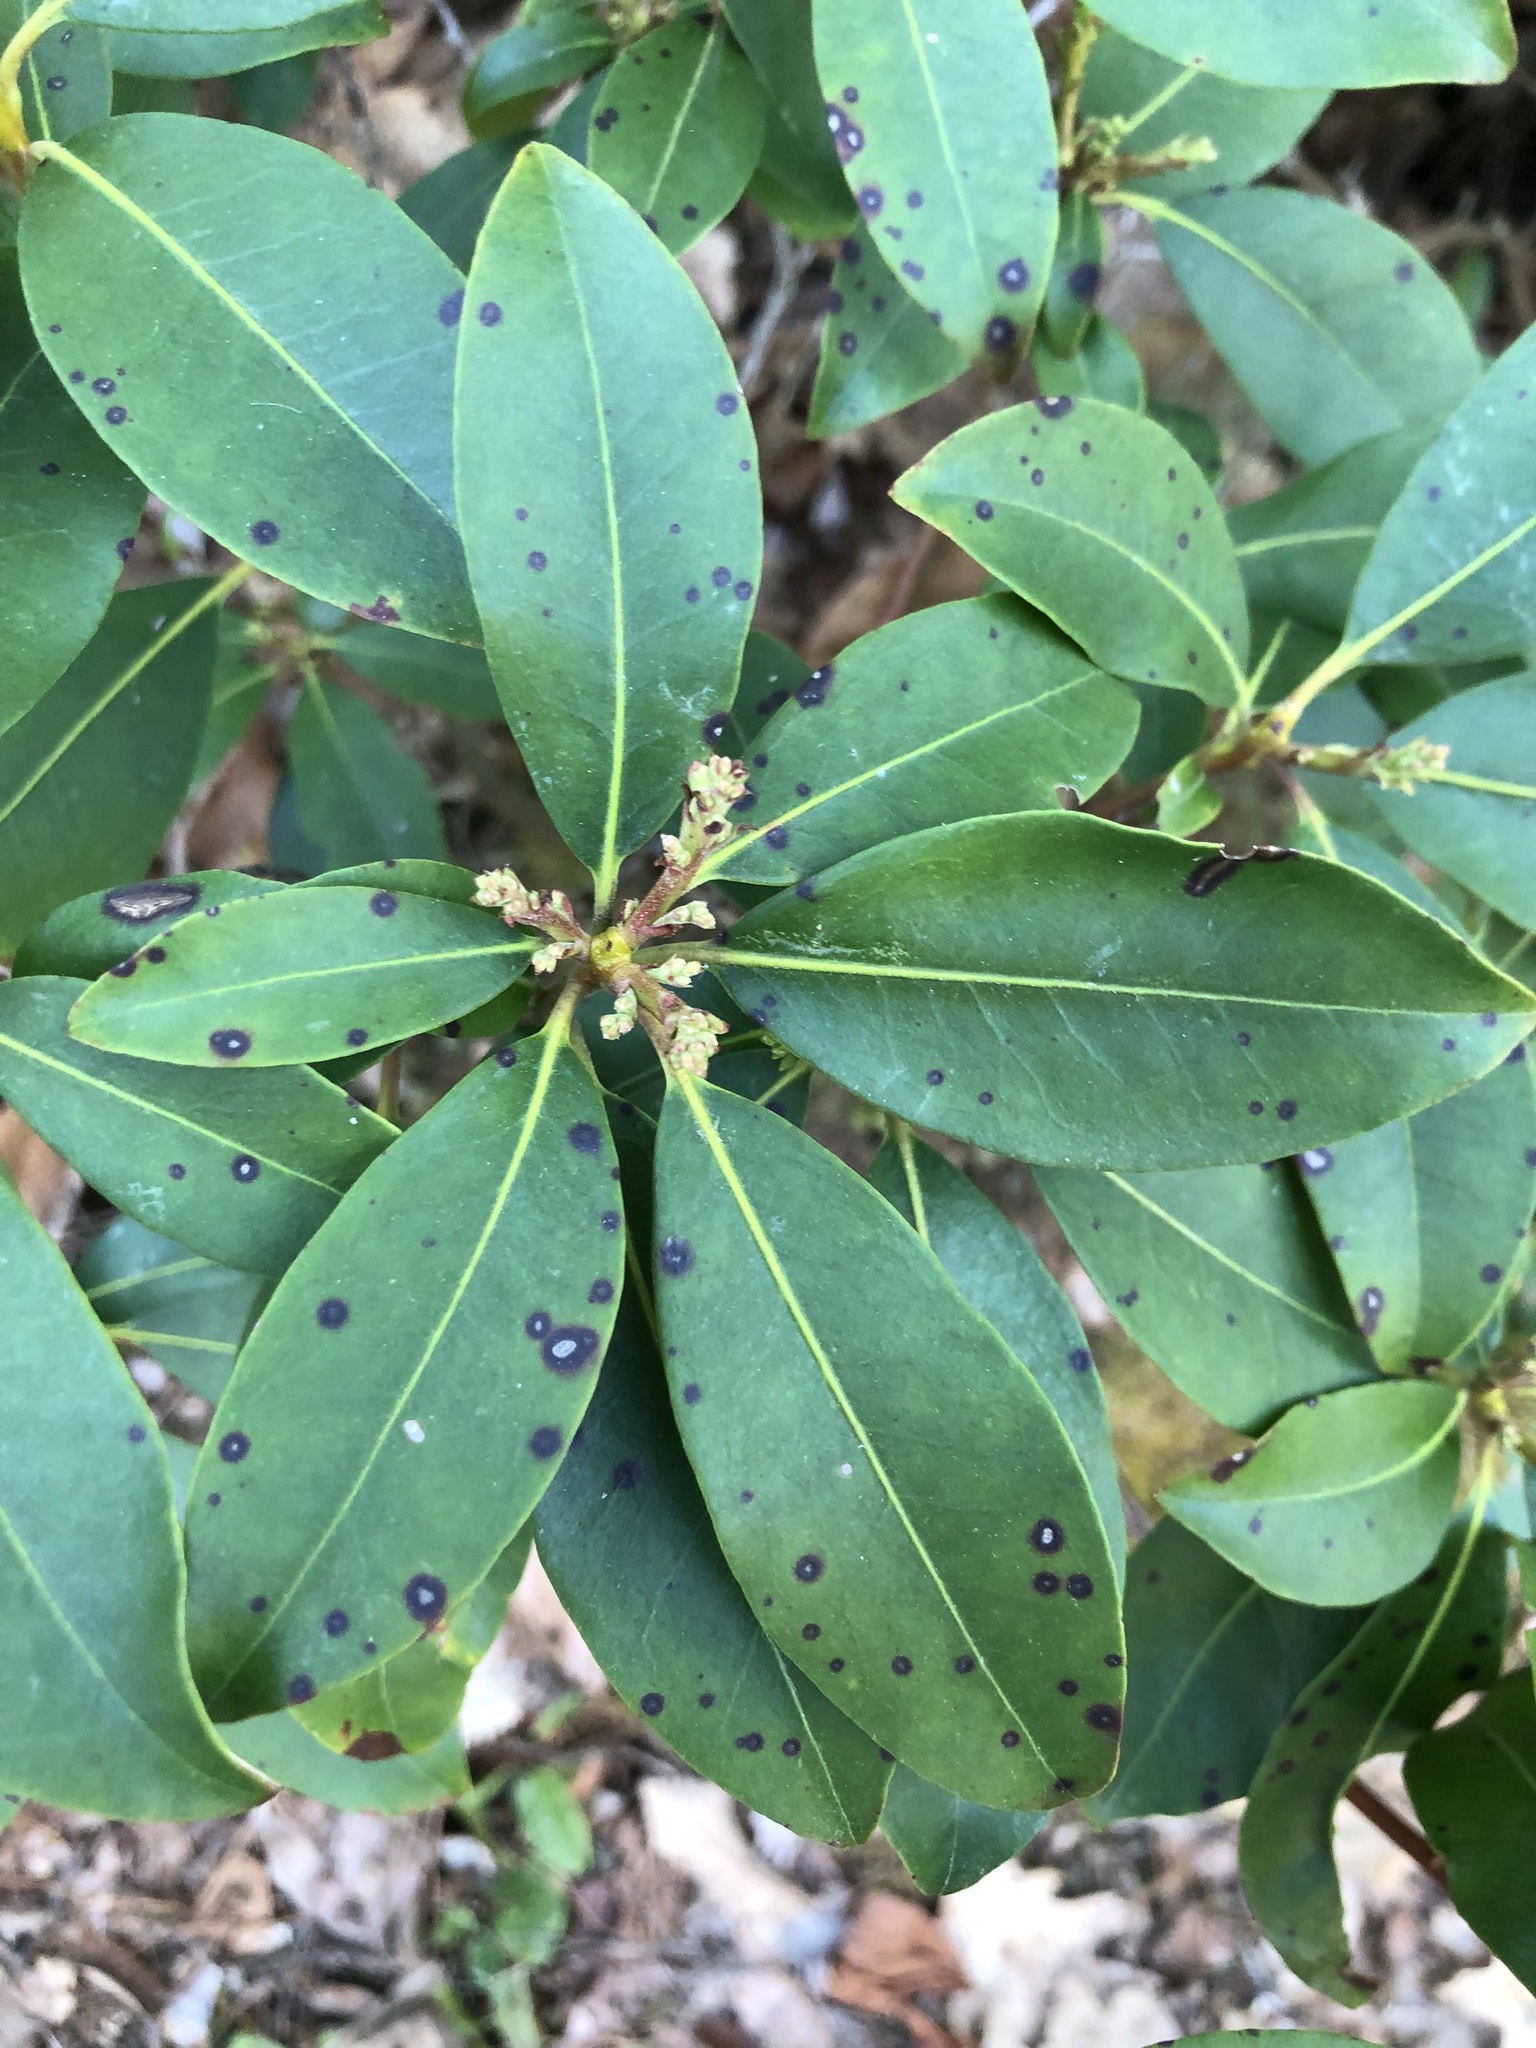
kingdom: Plantae
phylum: Tracheophyta
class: Magnoliopsida
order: Ericales
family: Ericaceae
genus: Kalmia
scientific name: Kalmia latifolia
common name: Mountain-laurel
